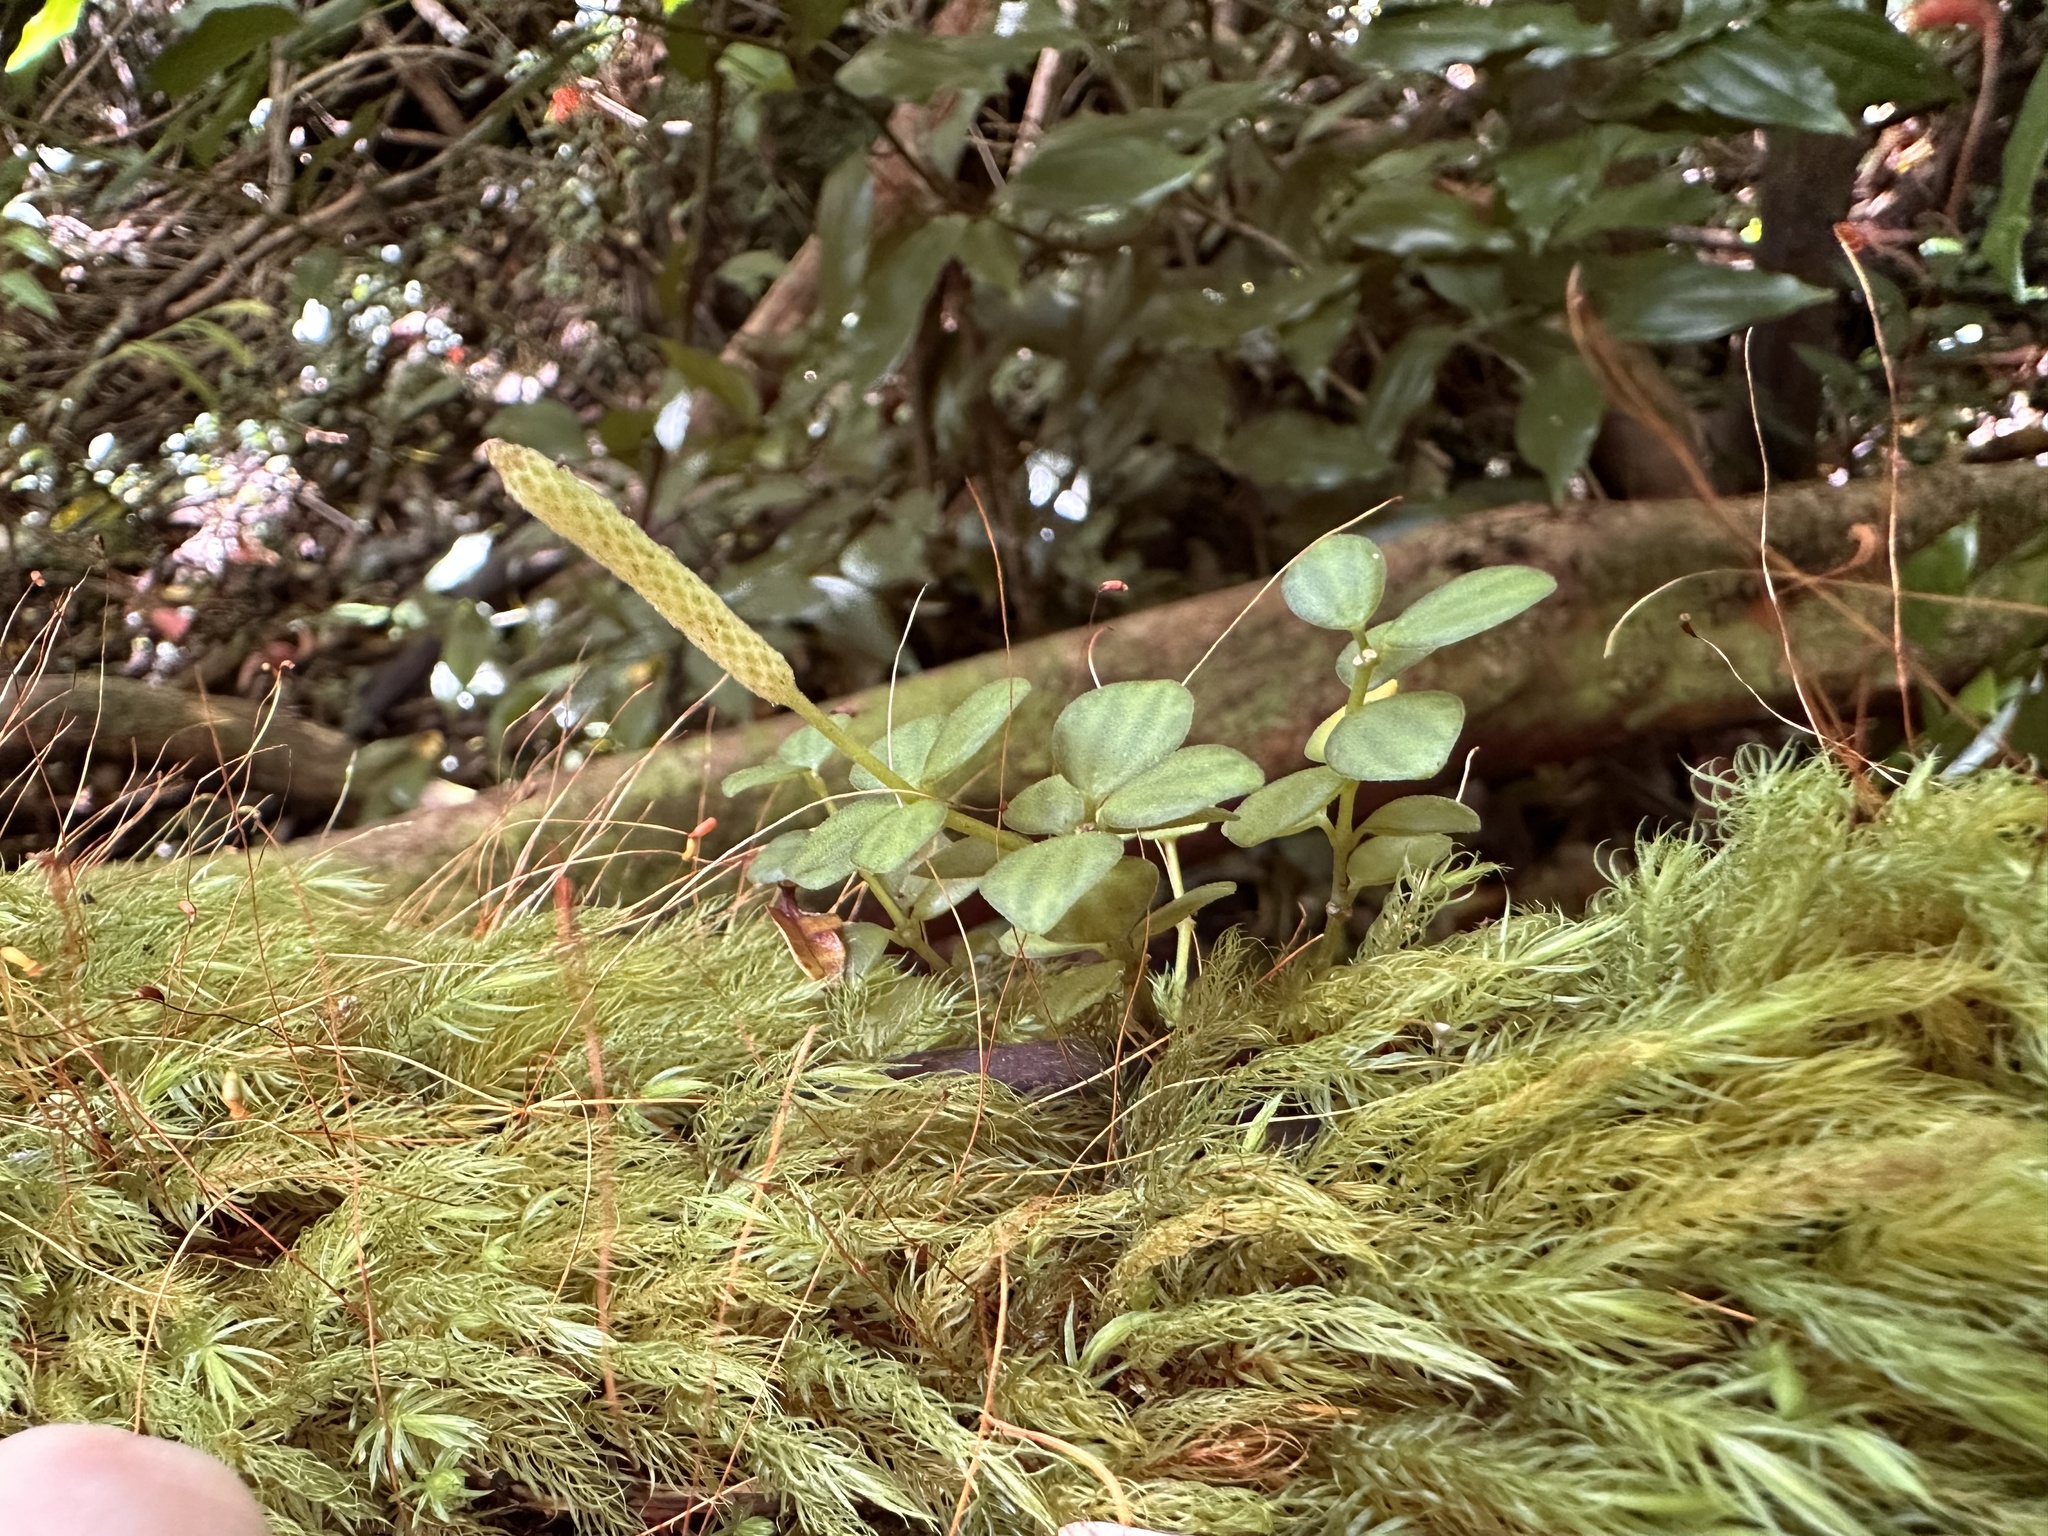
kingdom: Plantae
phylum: Tracheophyta
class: Magnoliopsida
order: Piperales
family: Piperaceae
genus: Peperomia
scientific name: Peperomia tetraphylla
